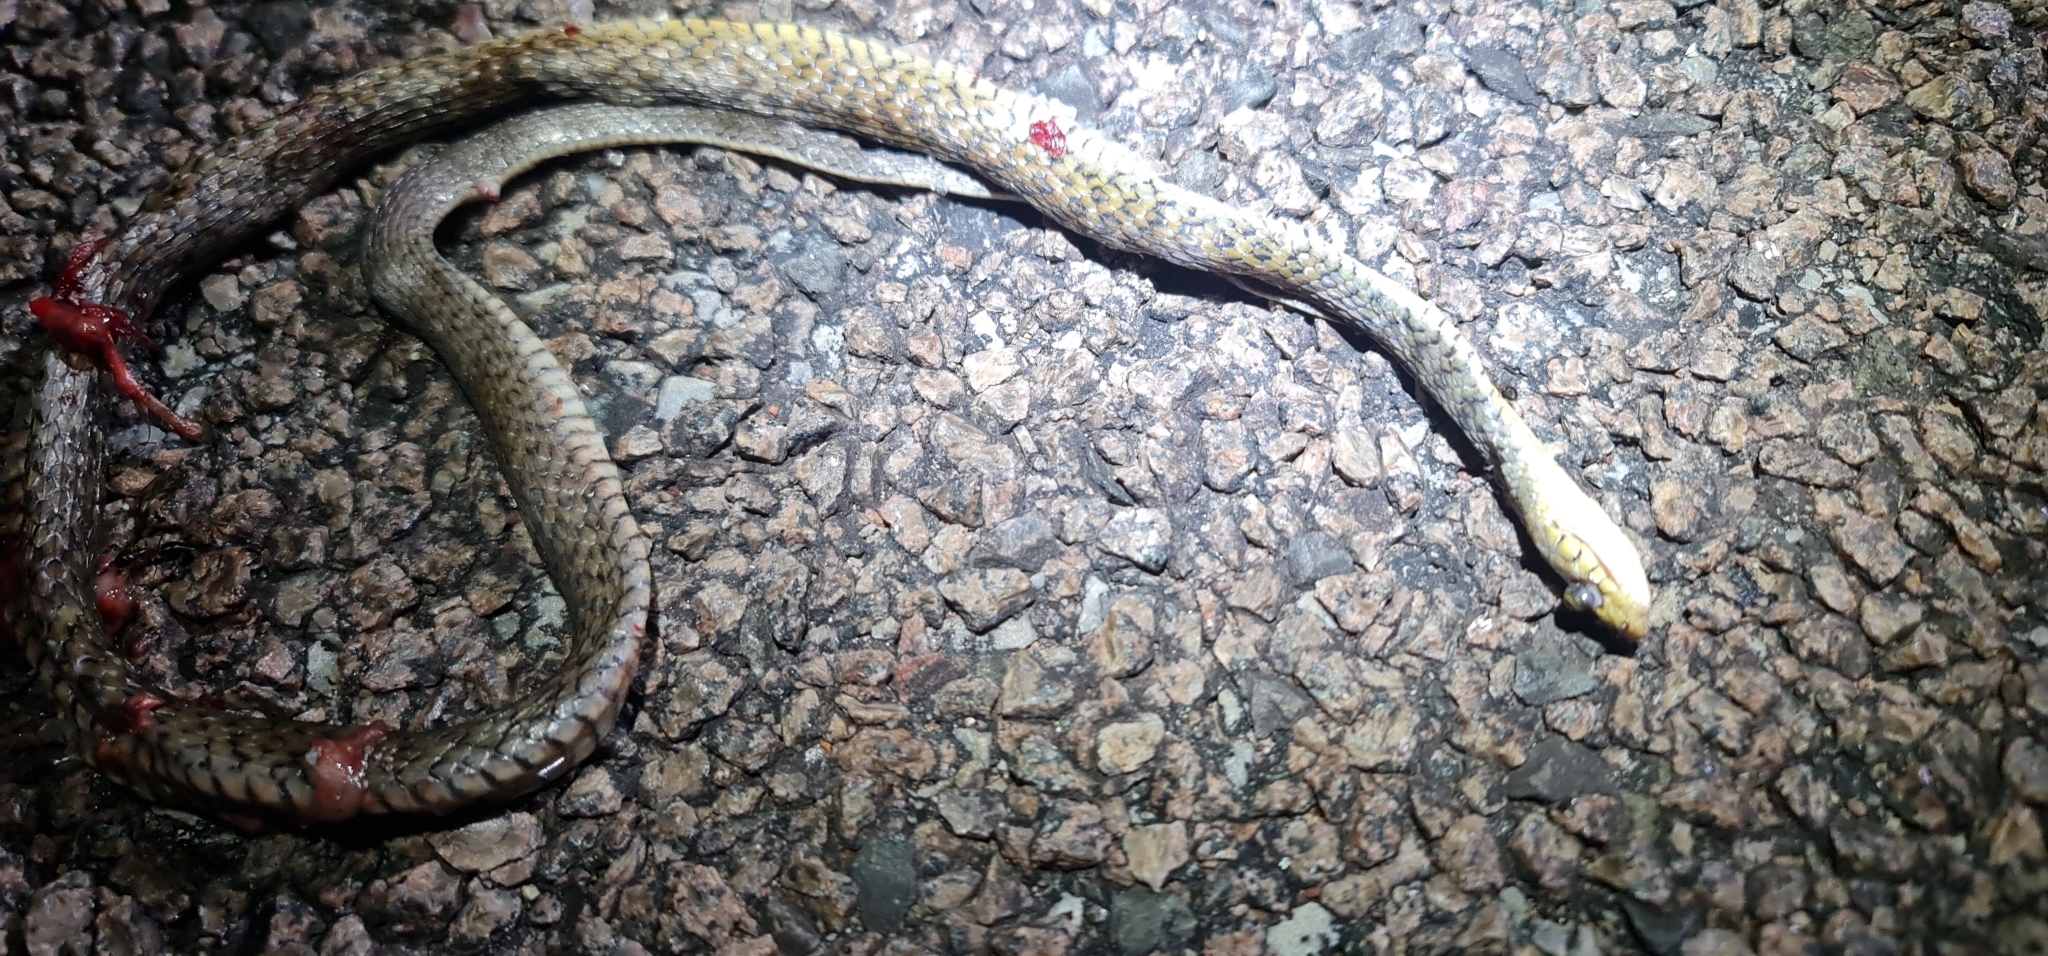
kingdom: Animalia
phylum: Chordata
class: Squamata
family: Colubridae
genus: Tropidonophis
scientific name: Tropidonophis mairii
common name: Common keelback
